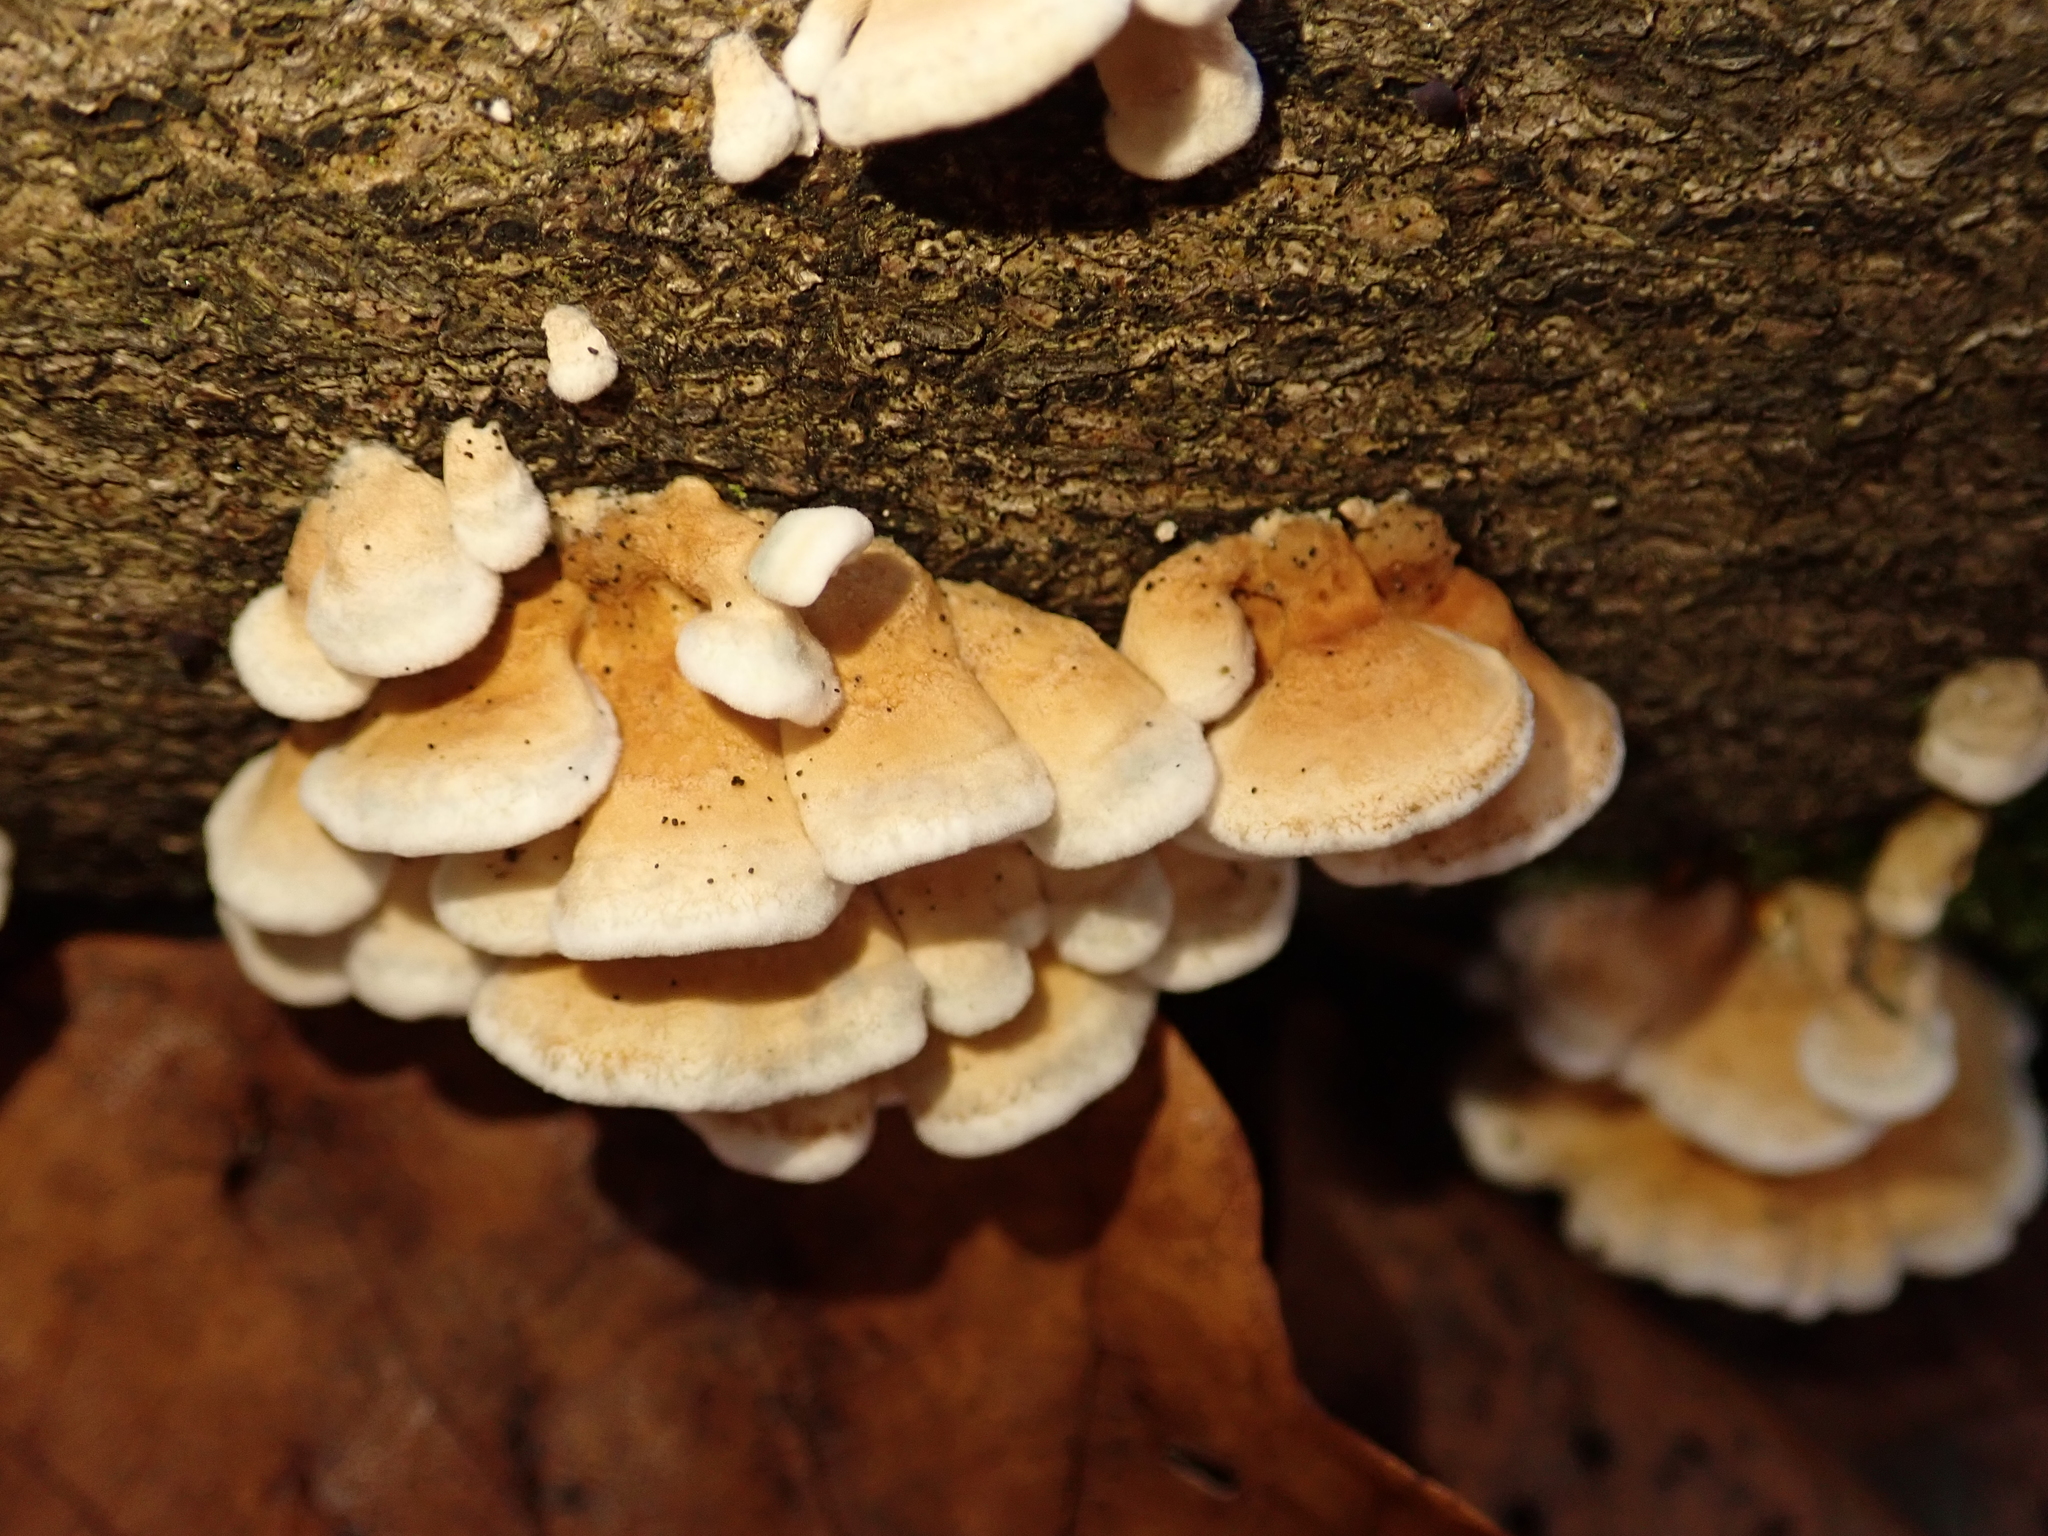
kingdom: Fungi
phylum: Basidiomycota
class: Agaricomycetes
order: Amylocorticiales
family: Amylocorticiaceae
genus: Plicaturopsis
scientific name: Plicaturopsis crispa
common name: Crimped gill
